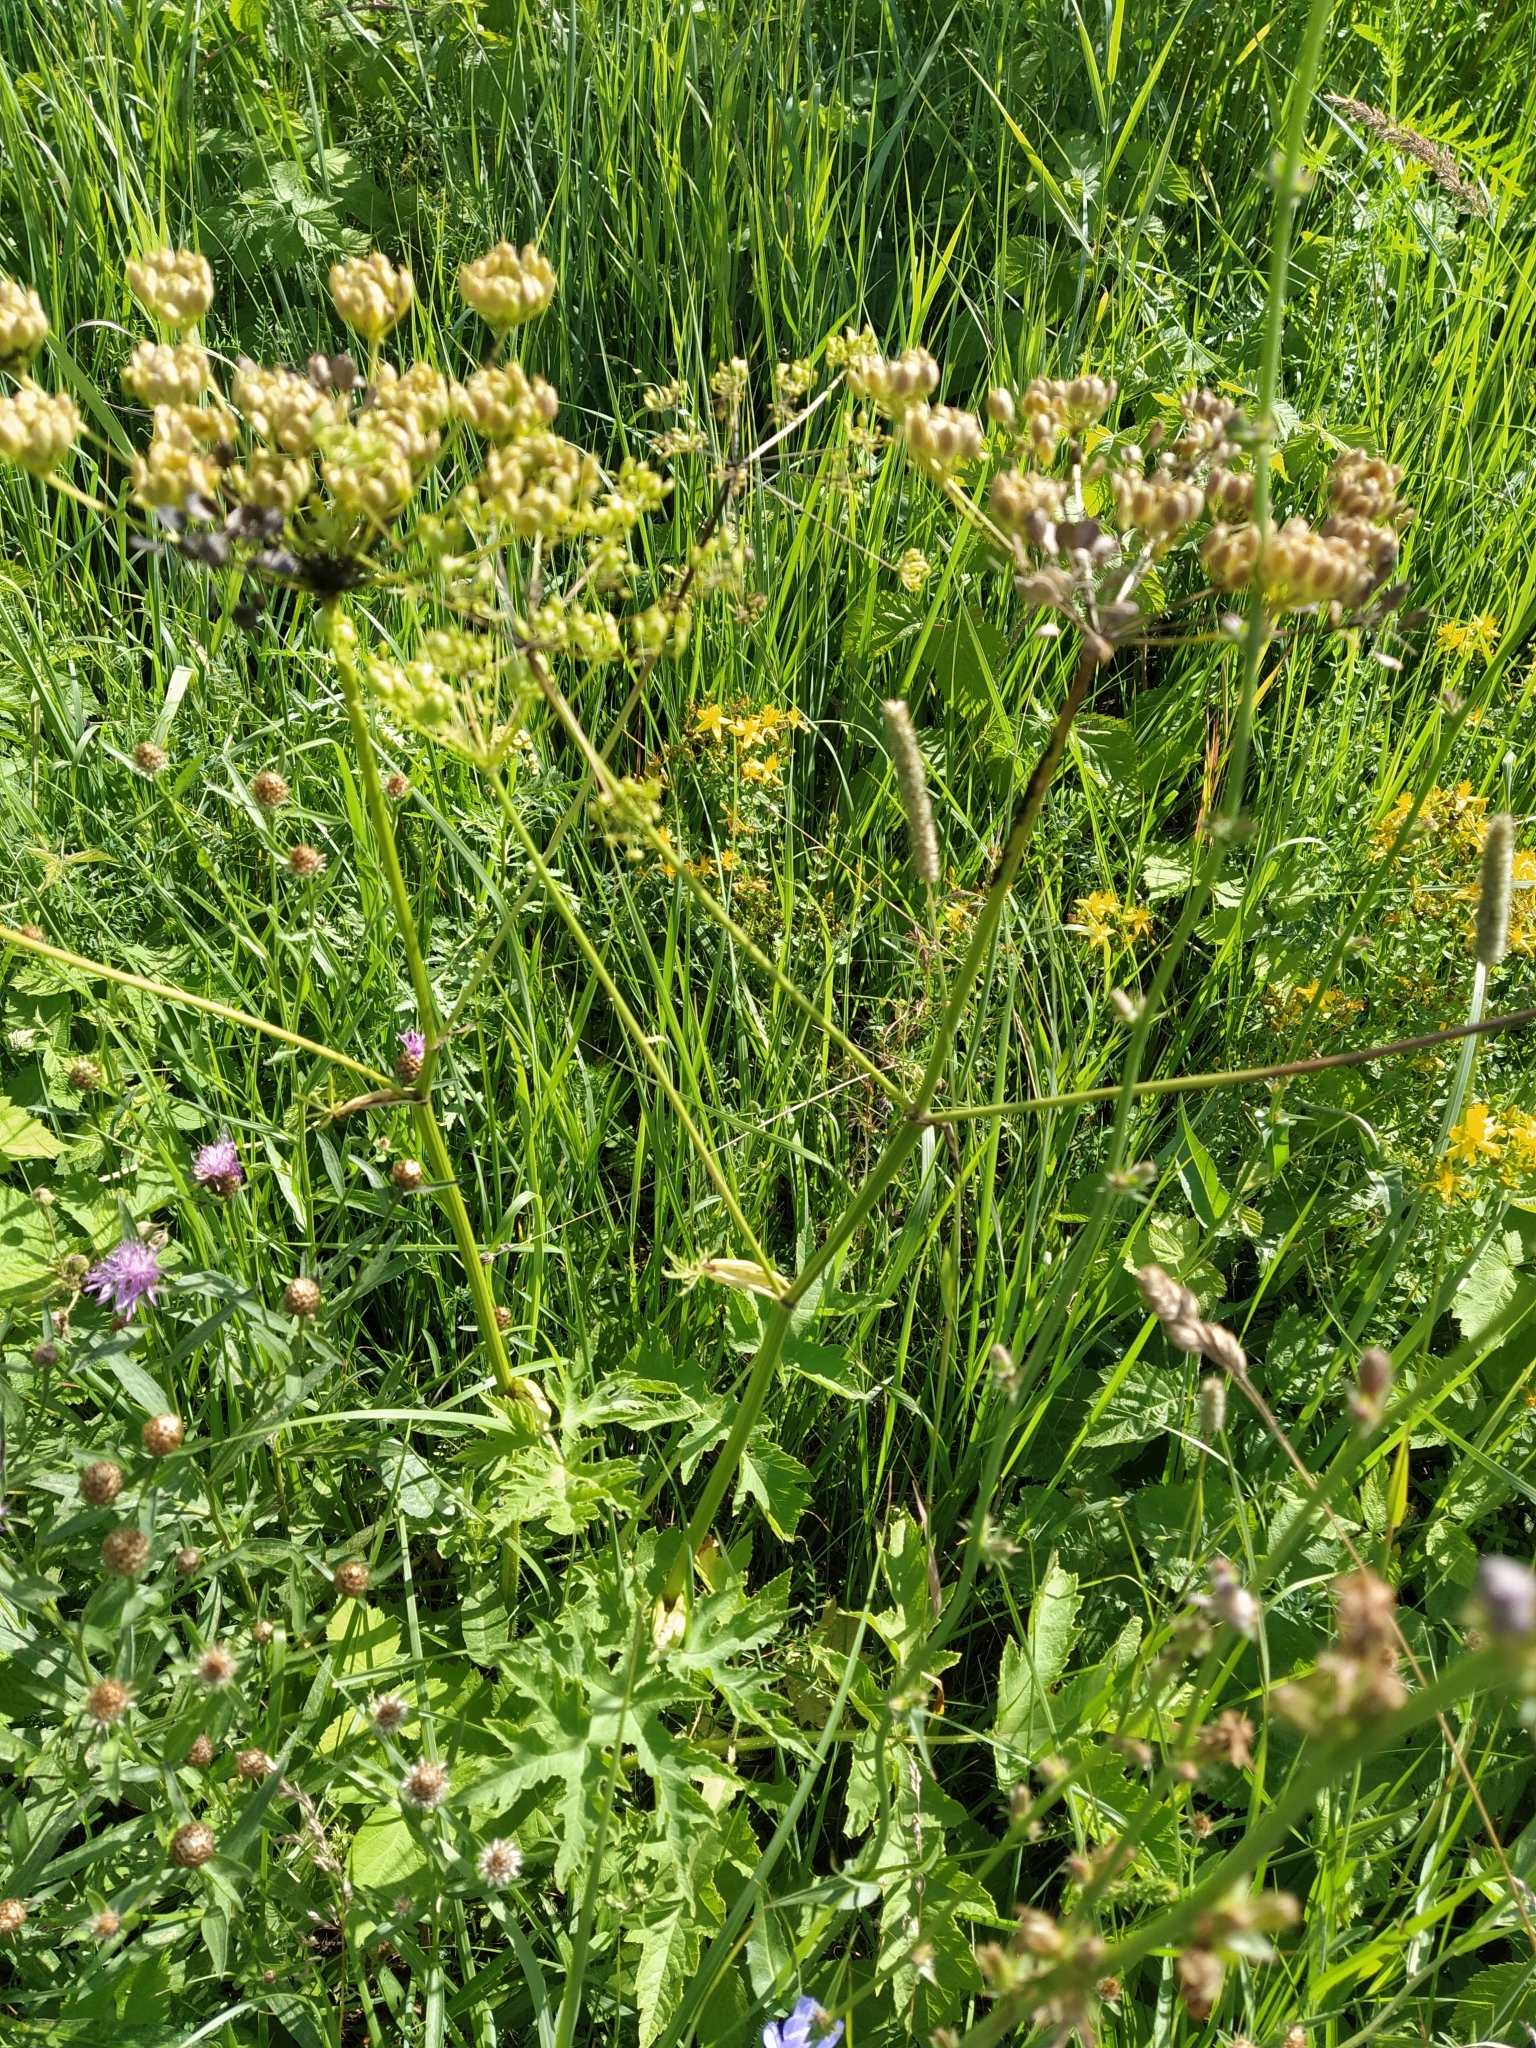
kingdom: Plantae
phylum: Tracheophyta
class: Magnoliopsida
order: Apiales
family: Apiaceae
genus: Heracleum
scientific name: Heracleum sphondylium
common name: Hogweed
